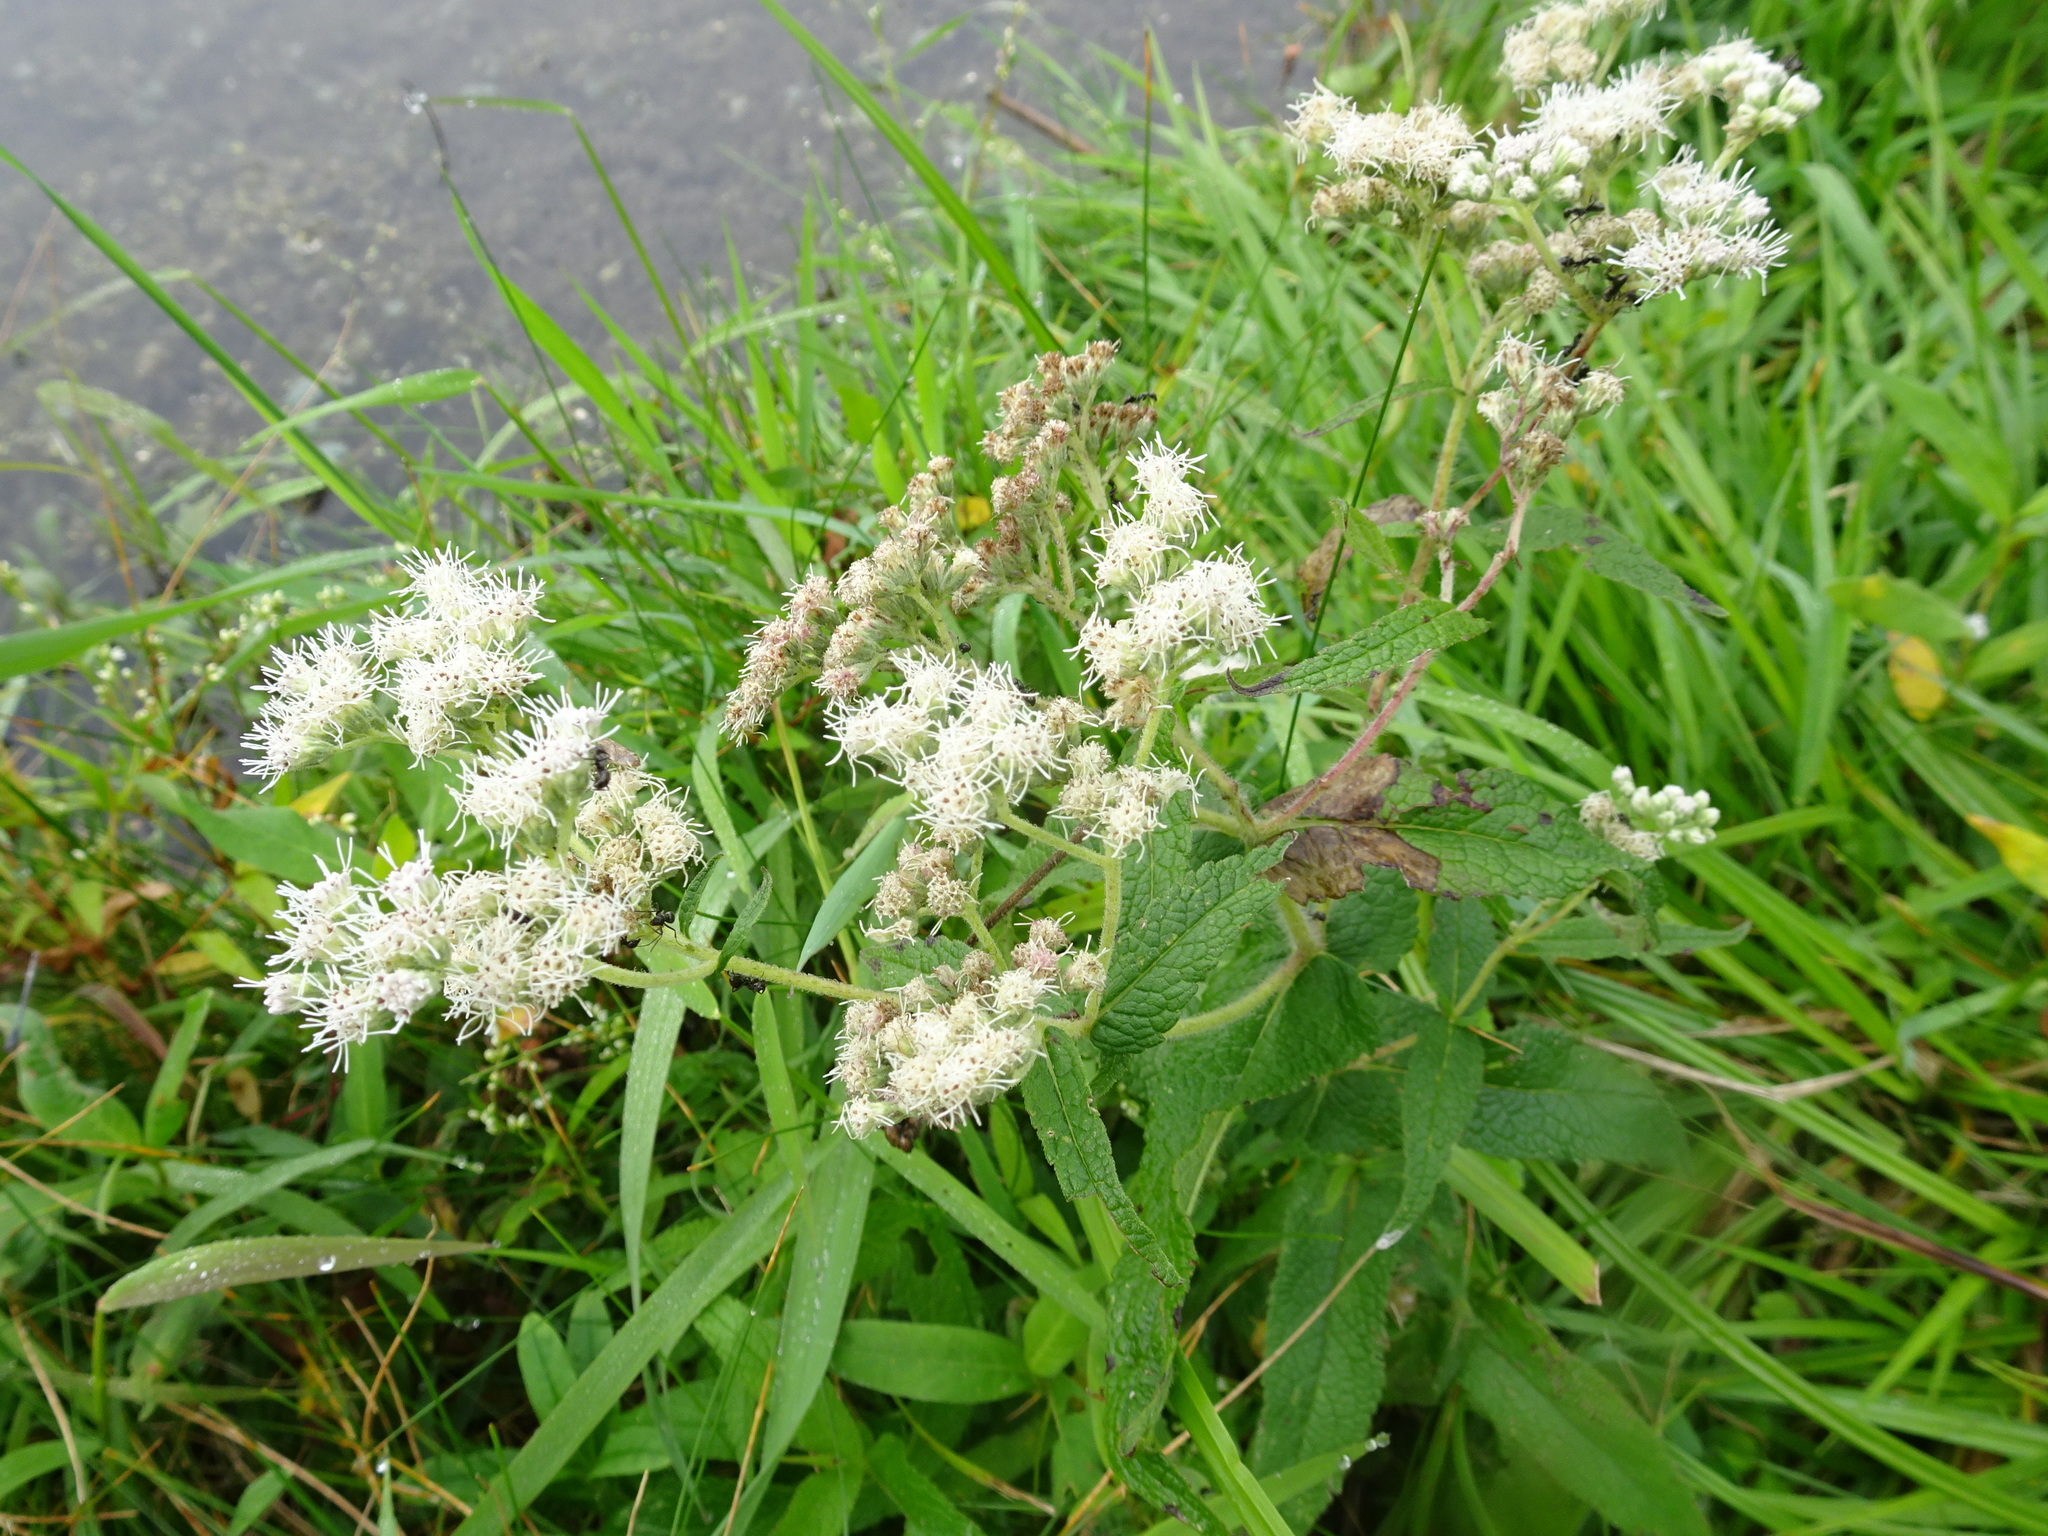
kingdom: Plantae
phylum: Tracheophyta
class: Magnoliopsida
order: Asterales
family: Asteraceae
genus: Eupatorium
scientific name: Eupatorium perfoliatum
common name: Boneset
